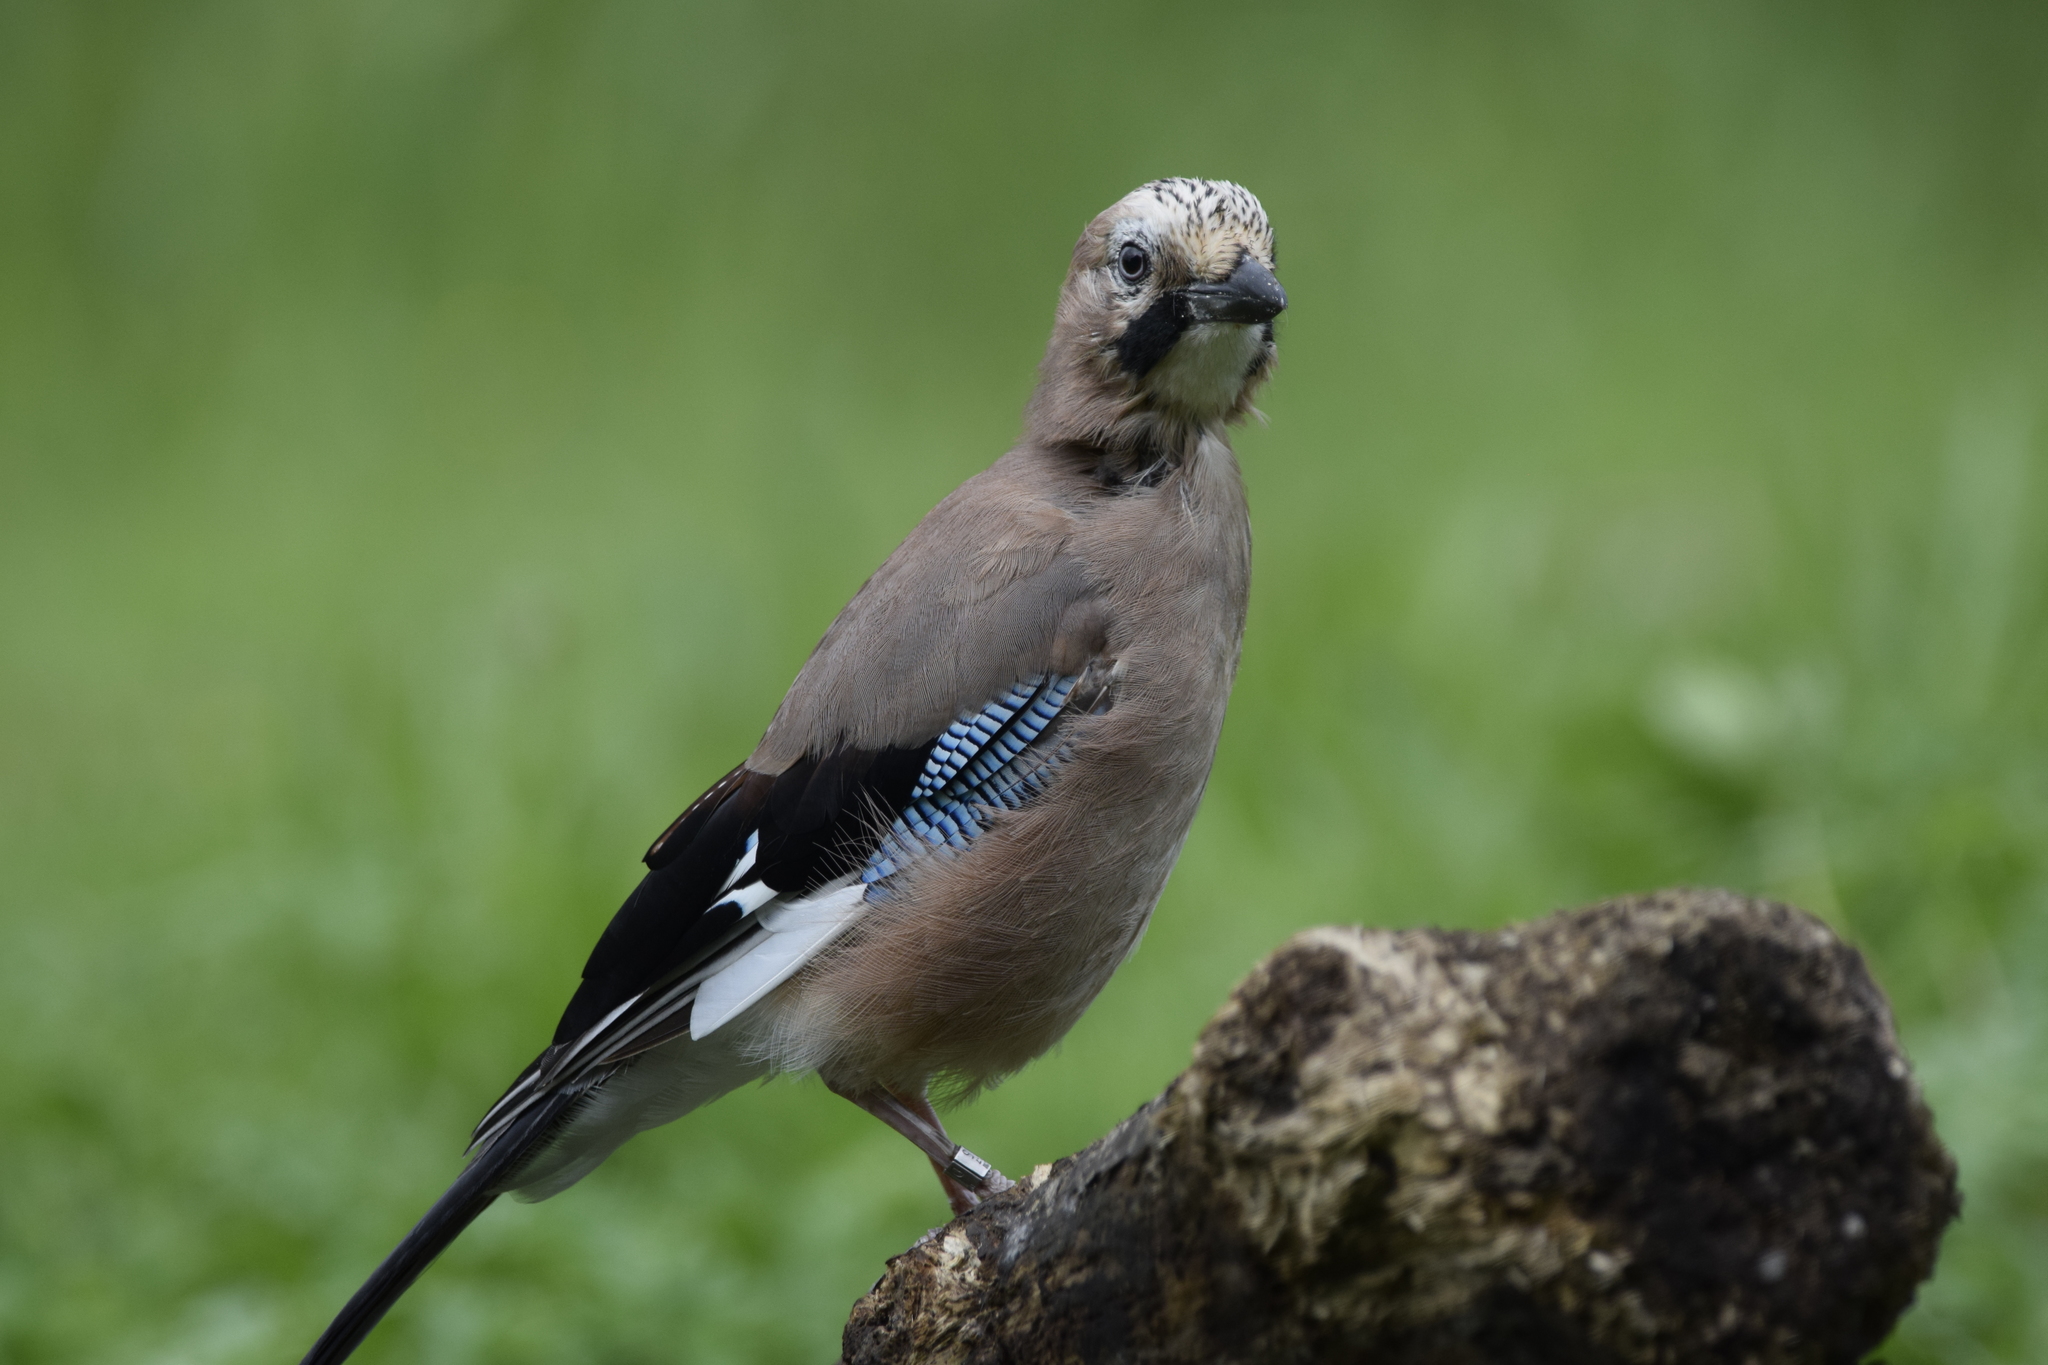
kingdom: Animalia
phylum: Chordata
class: Aves
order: Passeriformes
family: Corvidae
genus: Garrulus
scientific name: Garrulus glandarius
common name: Eurasian jay
